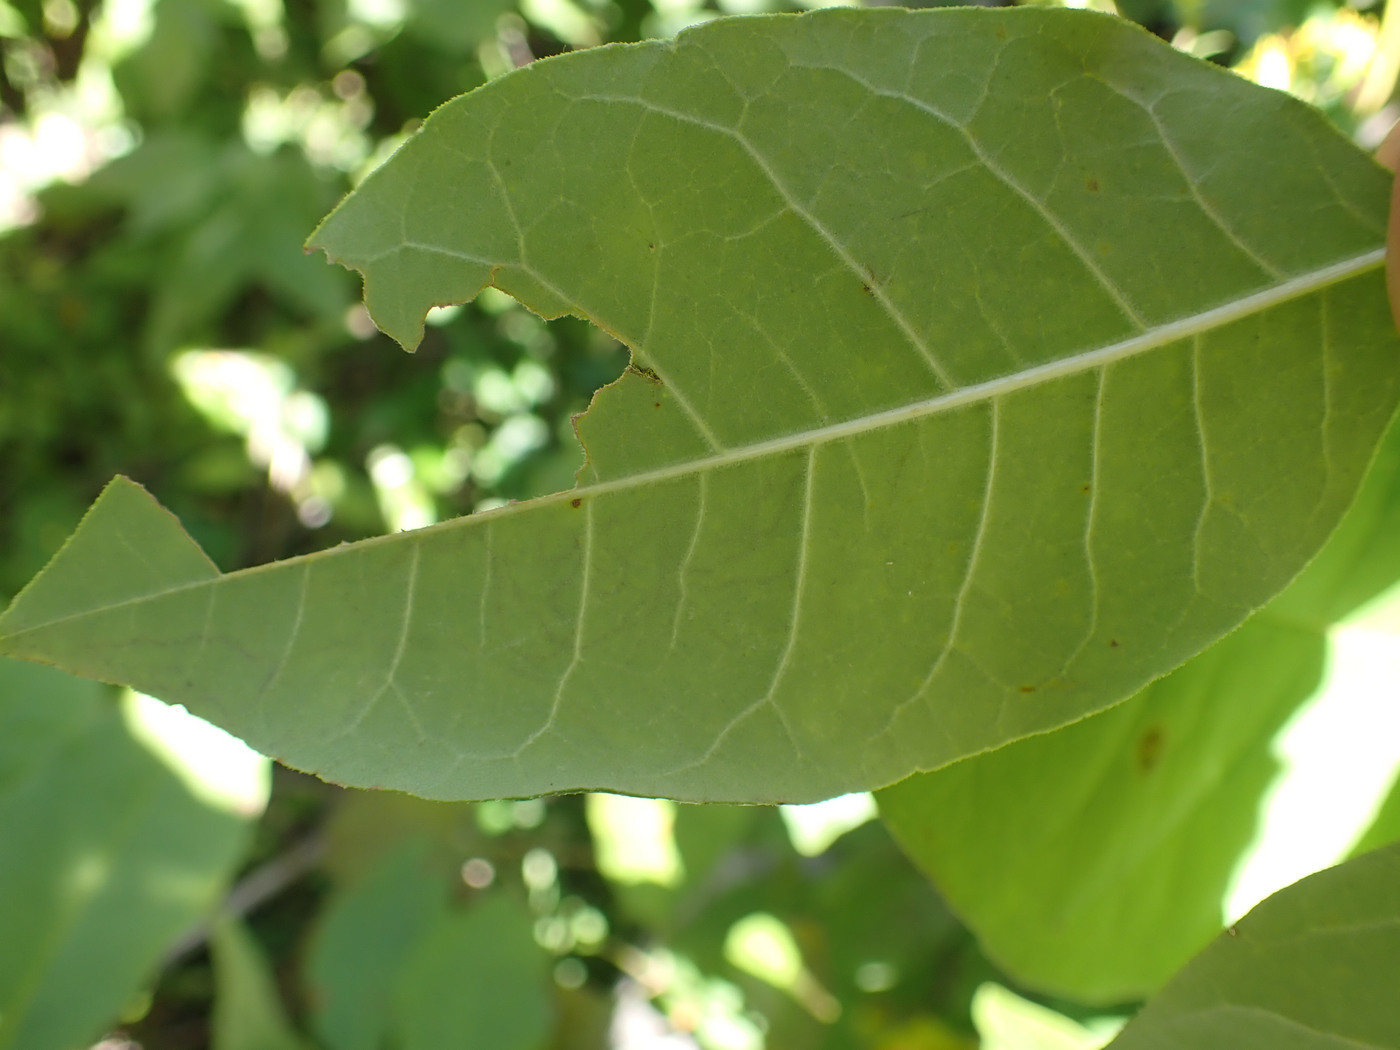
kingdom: Animalia
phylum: Arthropoda
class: Insecta
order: Lepidoptera
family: Gracillariidae
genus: Caloptilia
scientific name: Caloptilia fraxinella
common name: Ash leaf cone roller
